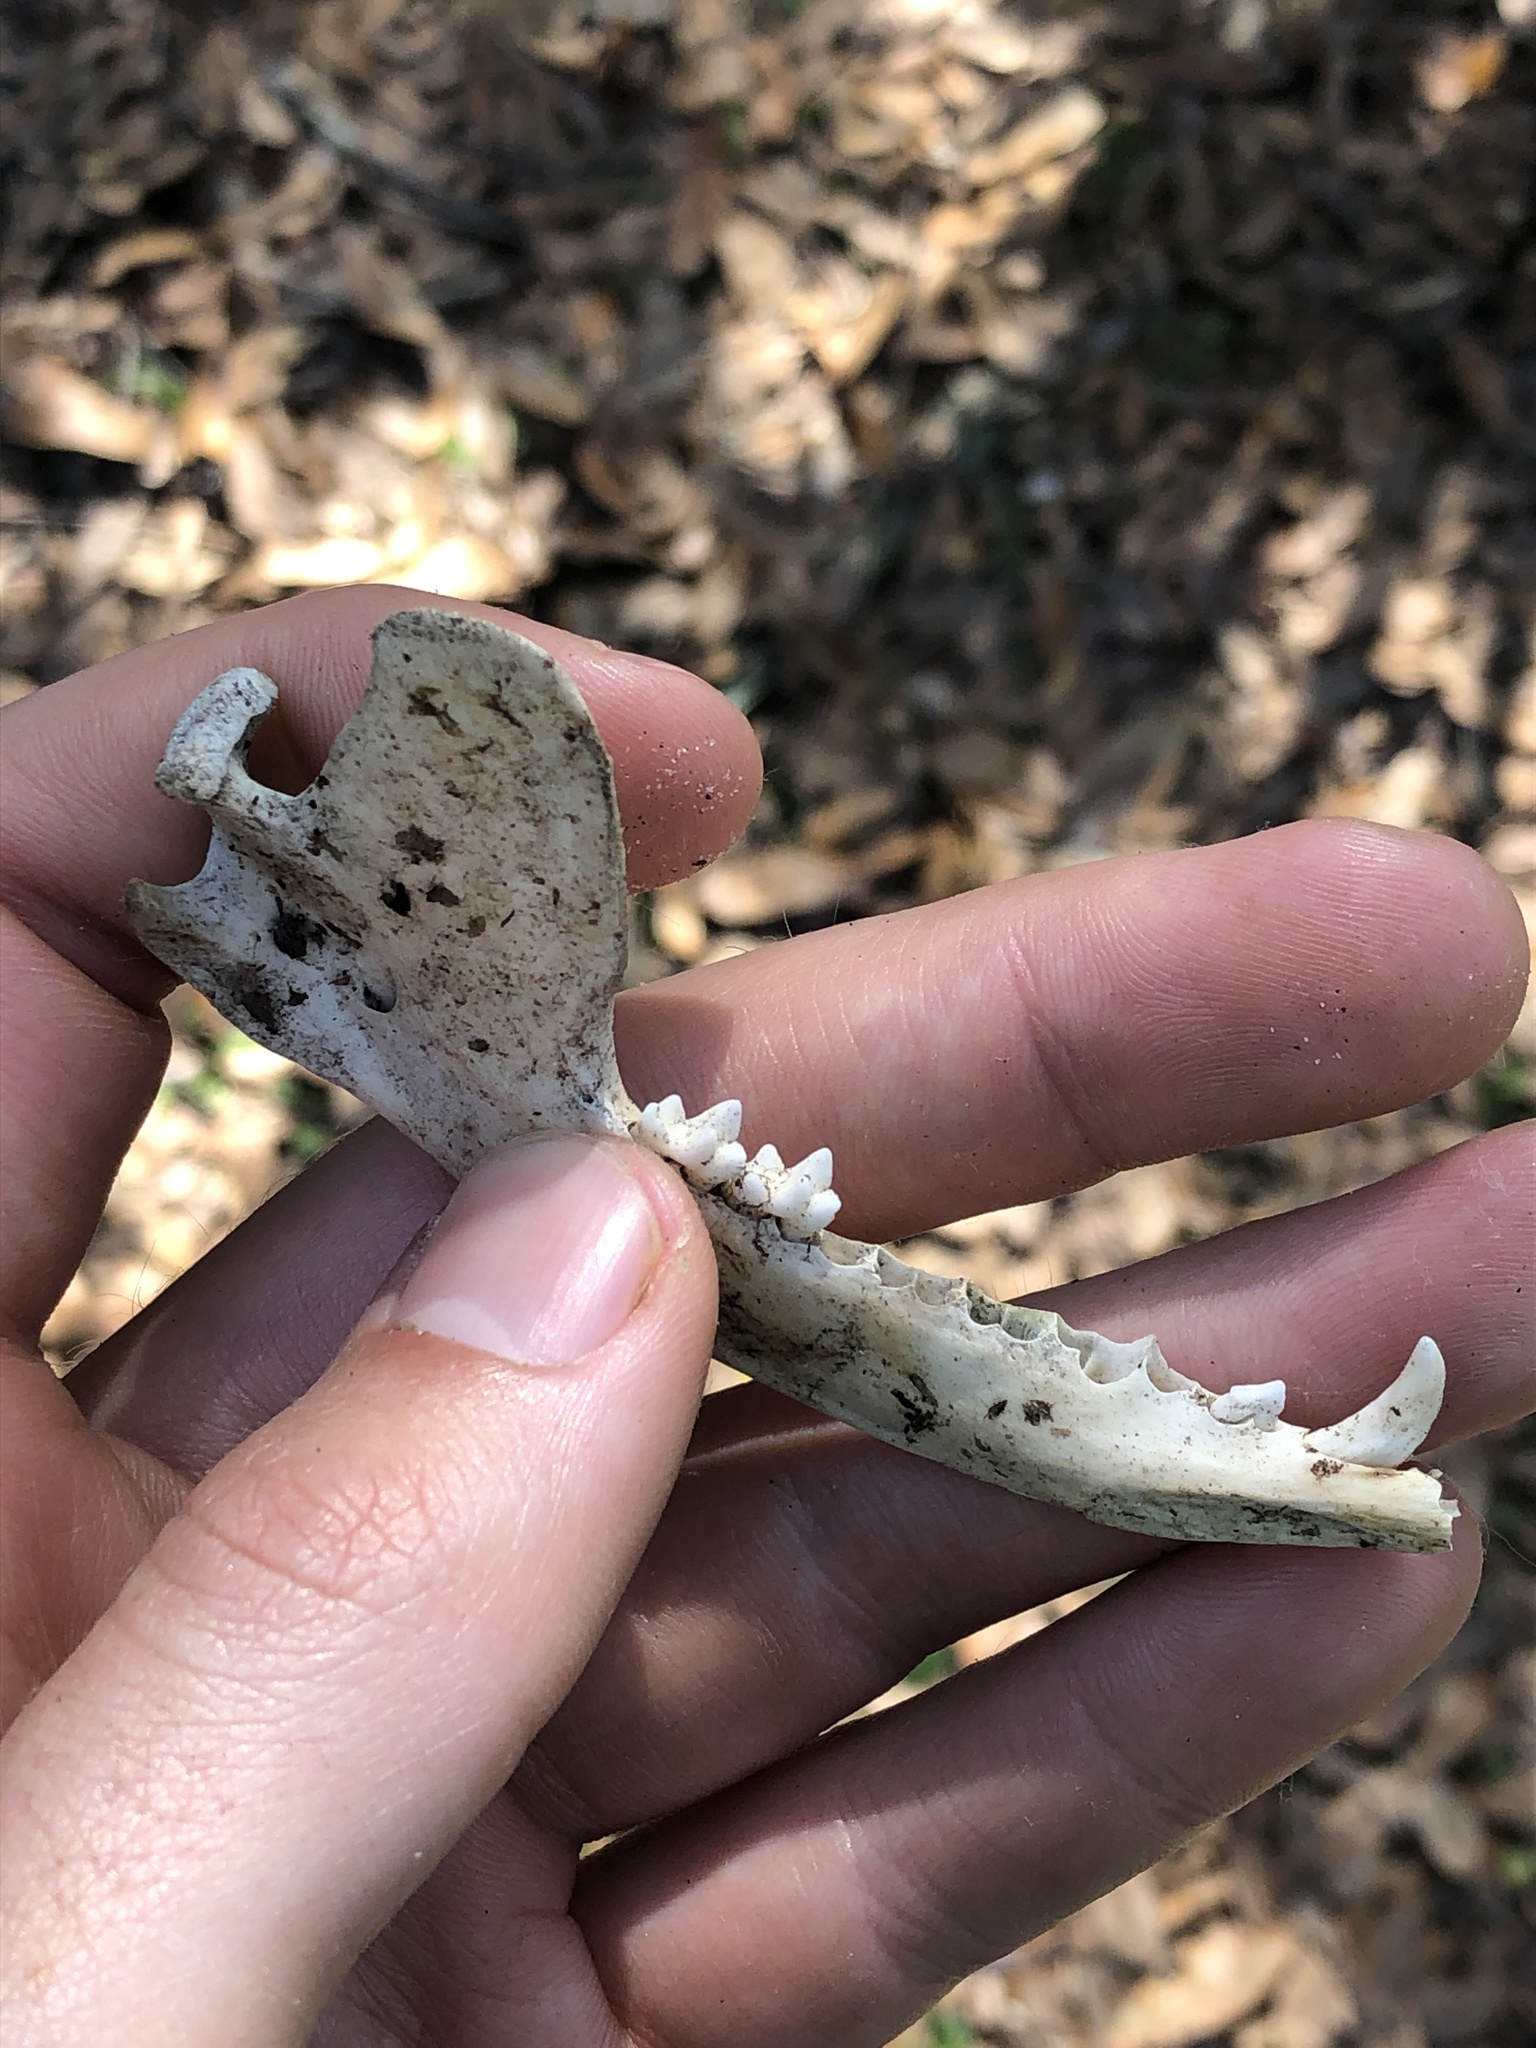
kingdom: Animalia
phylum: Chordata
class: Mammalia
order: Didelphimorphia
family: Didelphidae
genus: Didelphis
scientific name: Didelphis virginiana
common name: Virginia opossum
